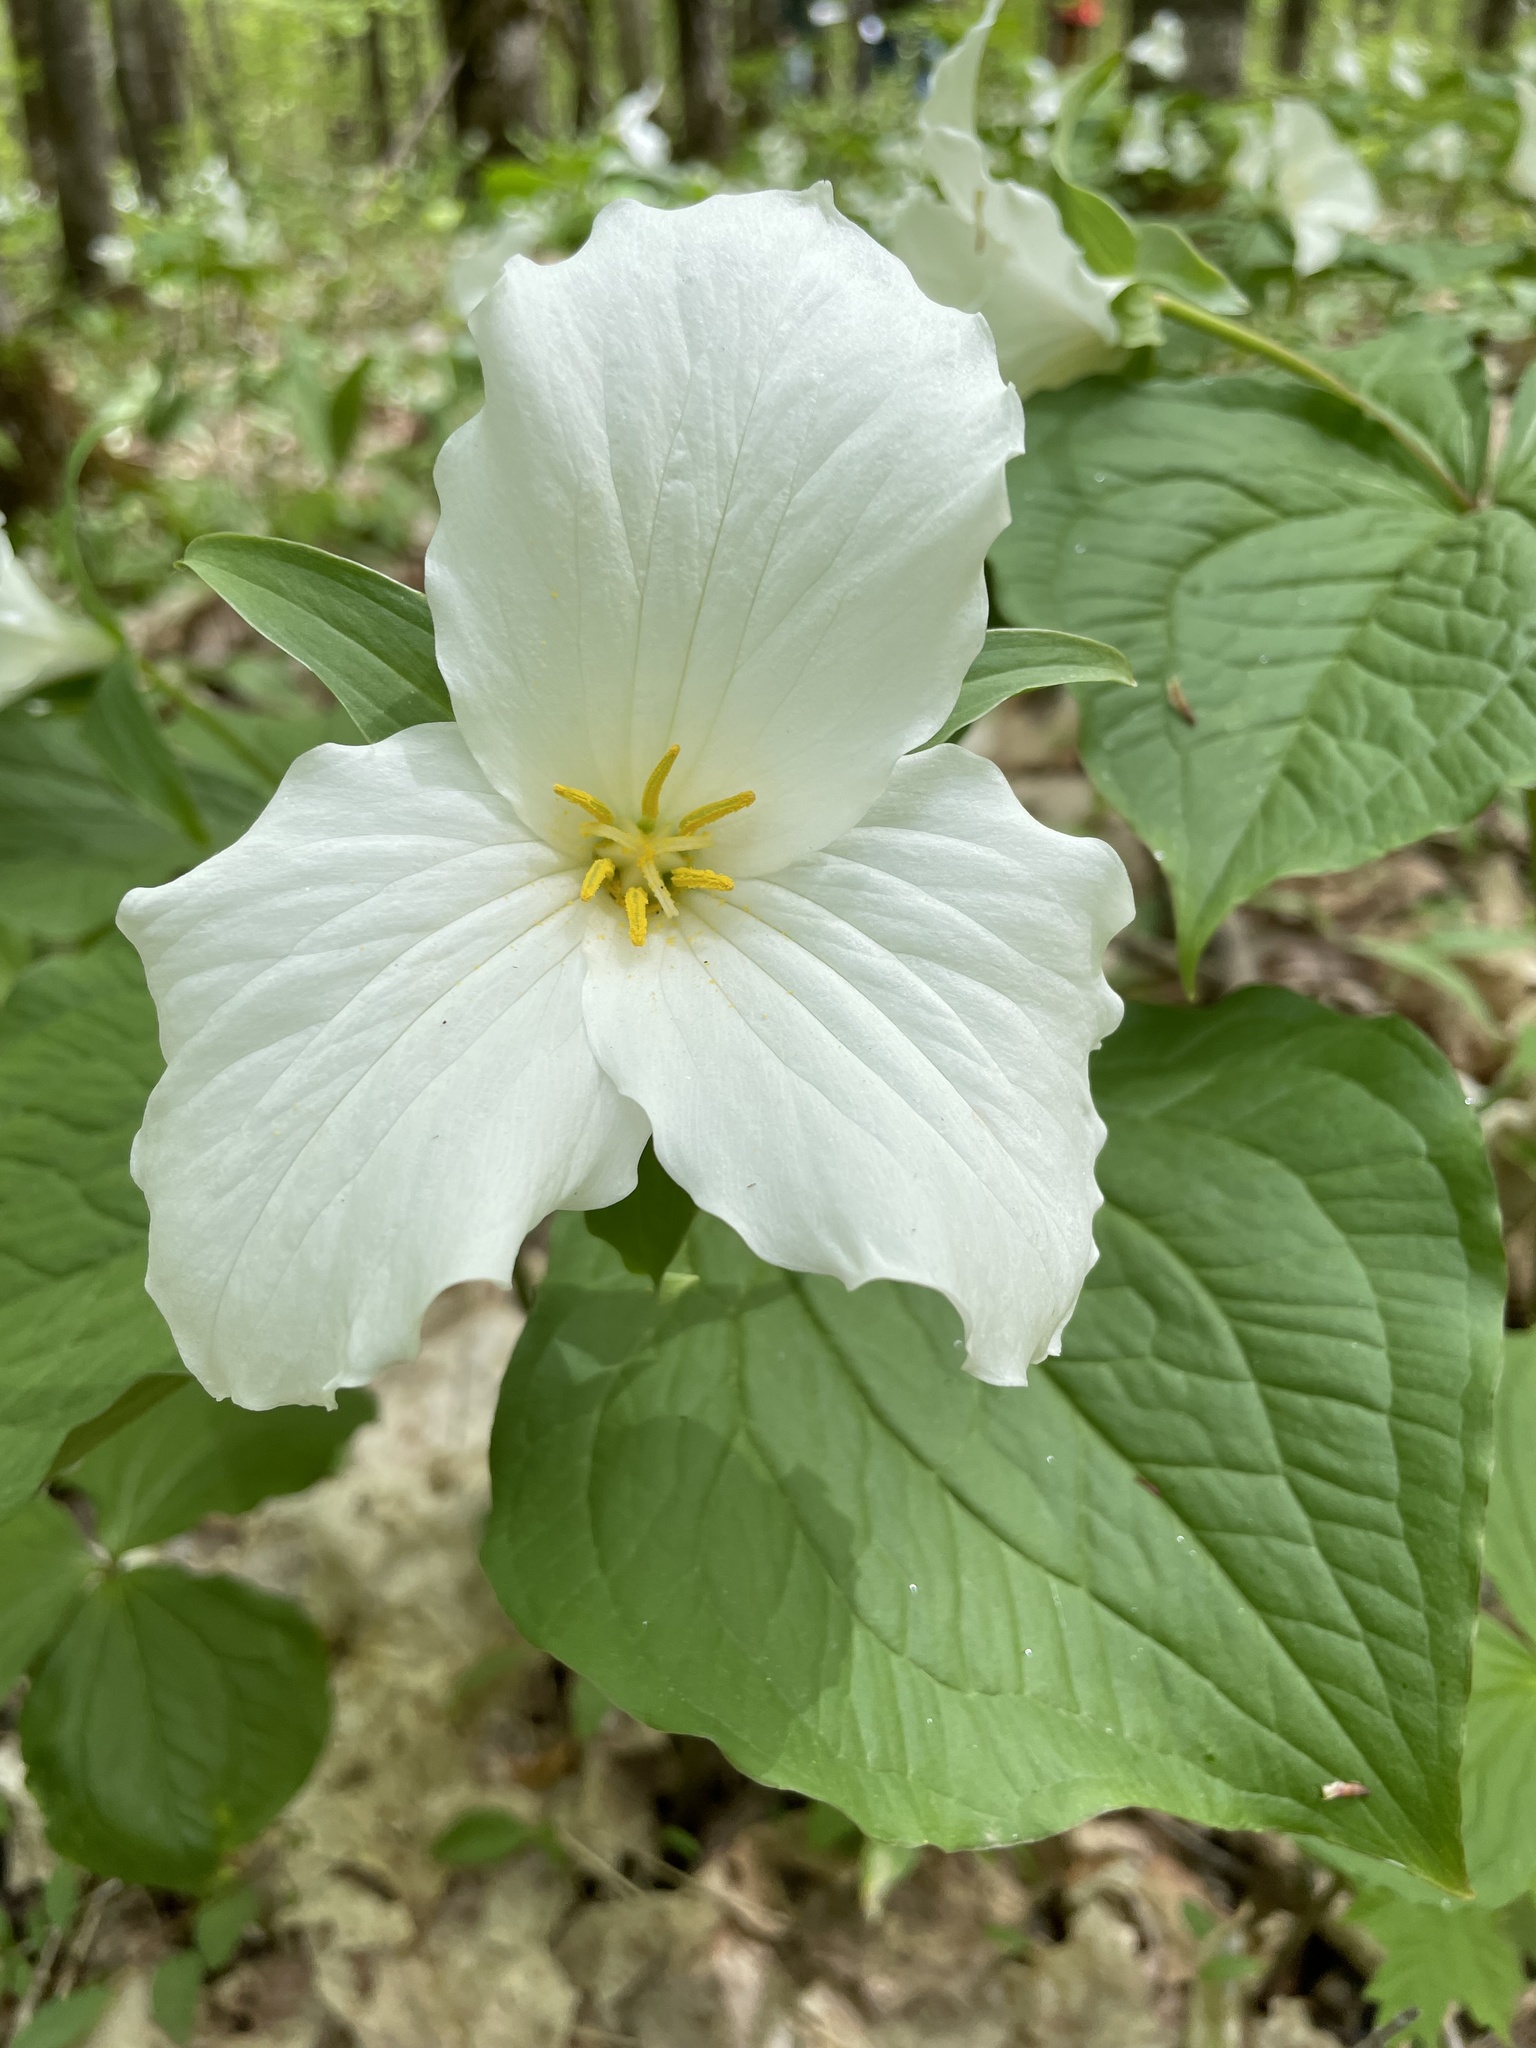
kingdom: Plantae
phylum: Tracheophyta
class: Liliopsida
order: Liliales
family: Melanthiaceae
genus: Trillium
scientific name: Trillium grandiflorum
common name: Great white trillium
